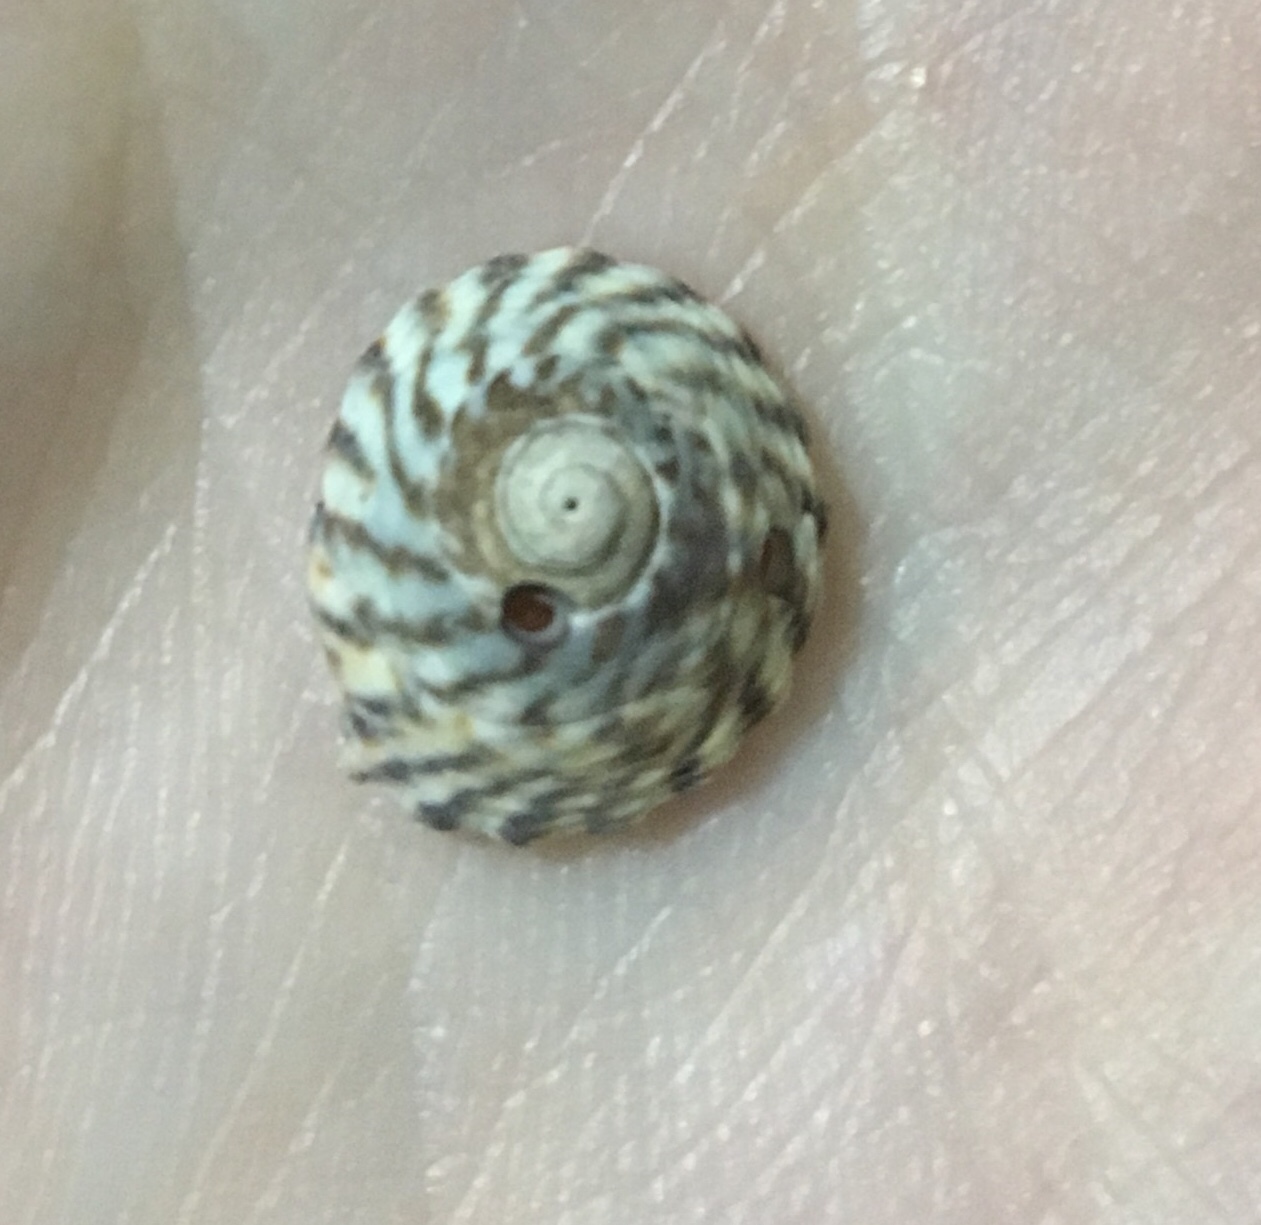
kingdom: Animalia
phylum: Mollusca
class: Gastropoda
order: Littorinimorpha
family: Littorinidae
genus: Bembicium
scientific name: Bembicium nanum
